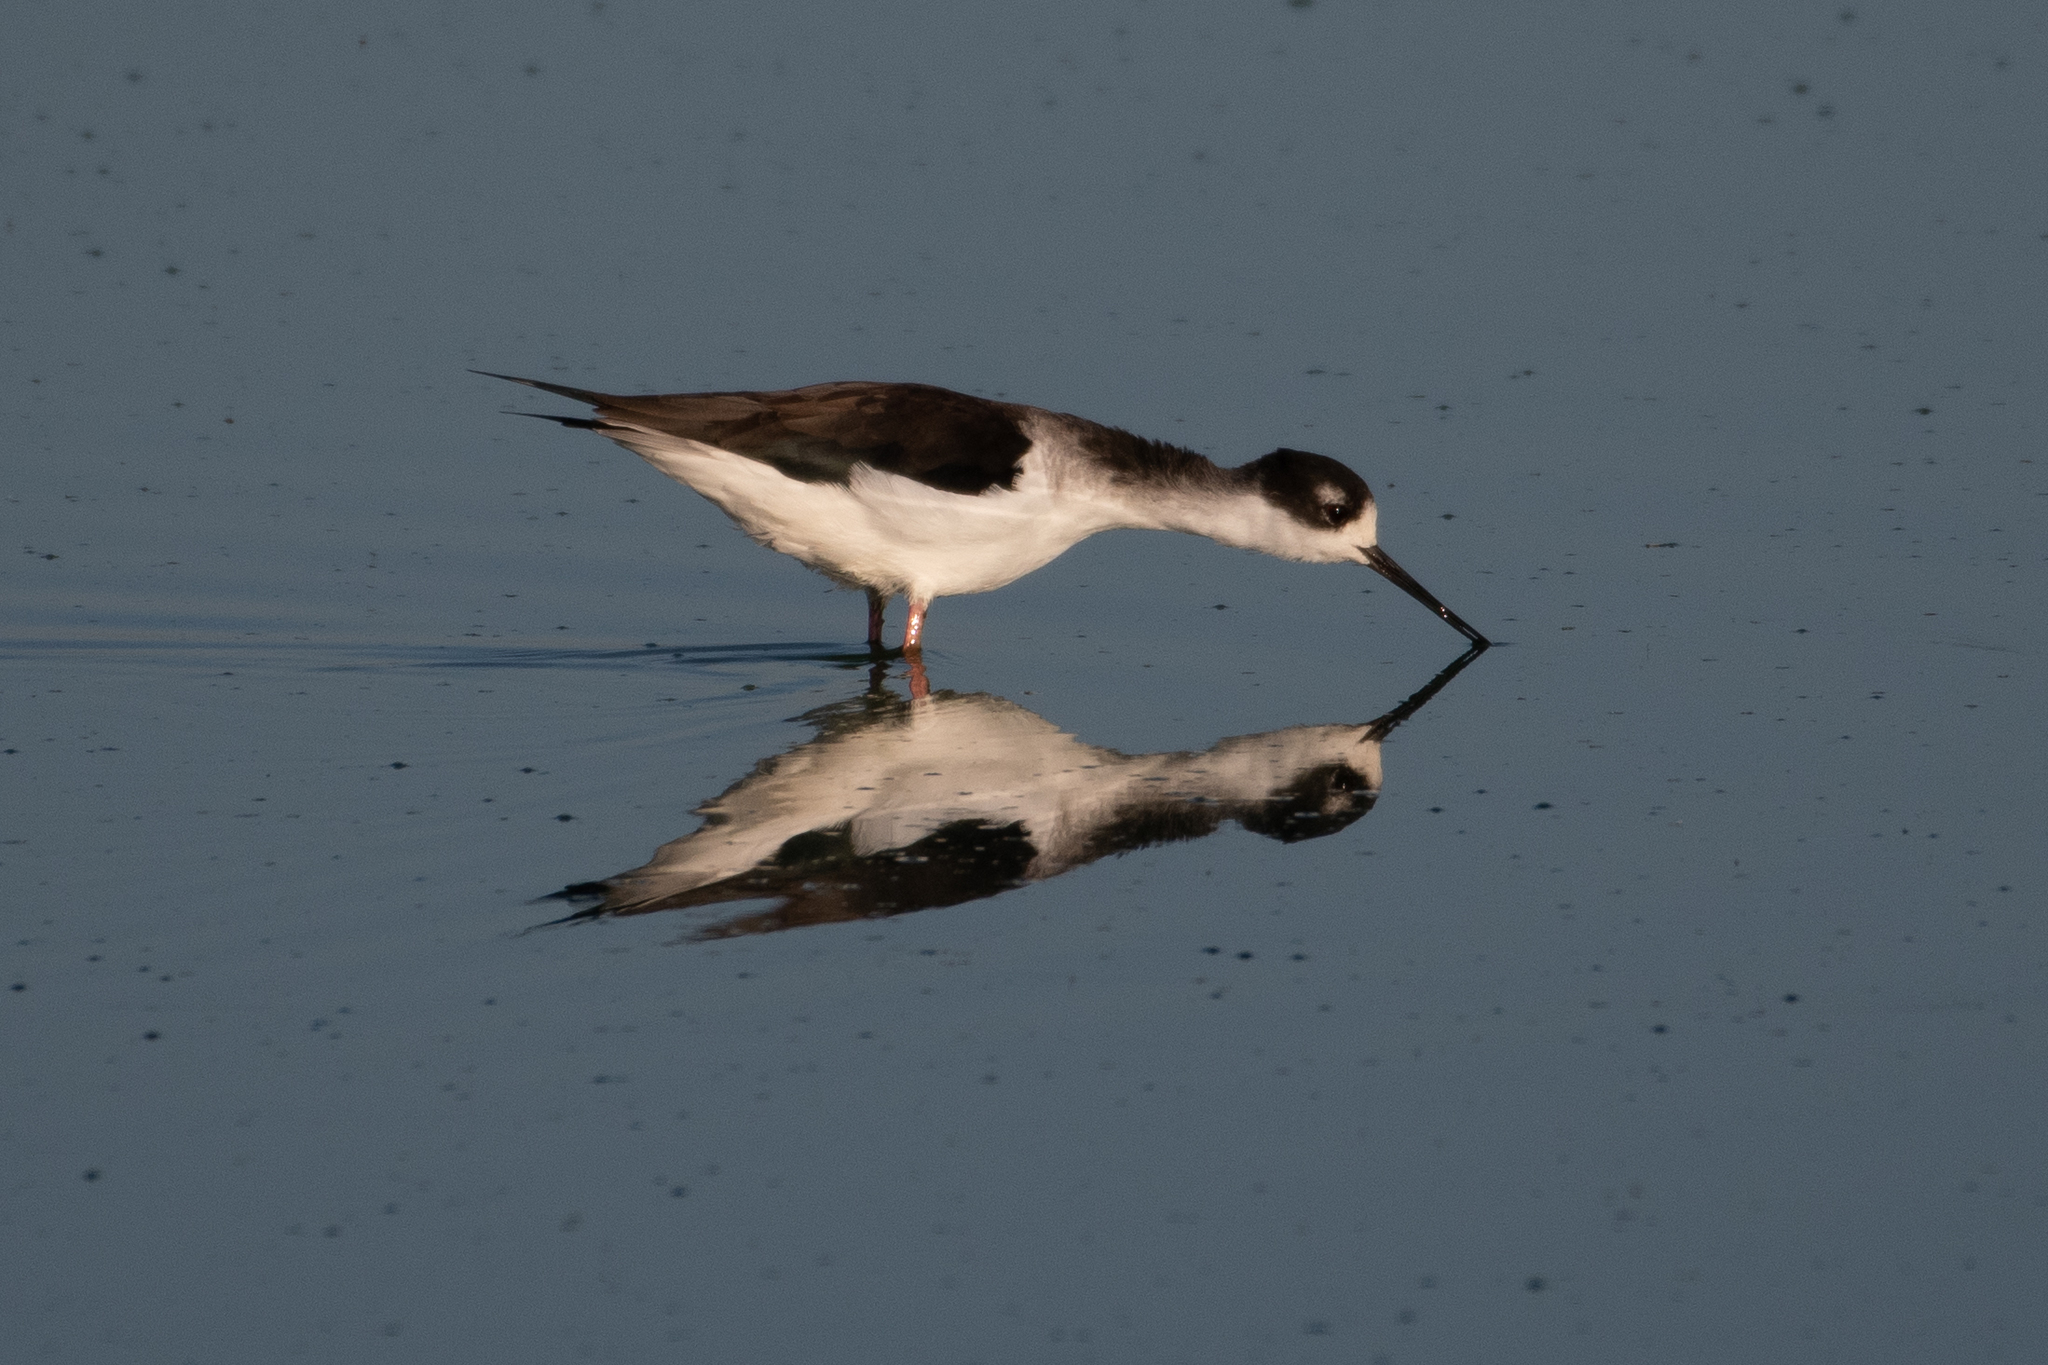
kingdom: Animalia
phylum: Chordata
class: Aves
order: Charadriiformes
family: Recurvirostridae
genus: Himantopus
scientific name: Himantopus mexicanus
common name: Black-necked stilt
